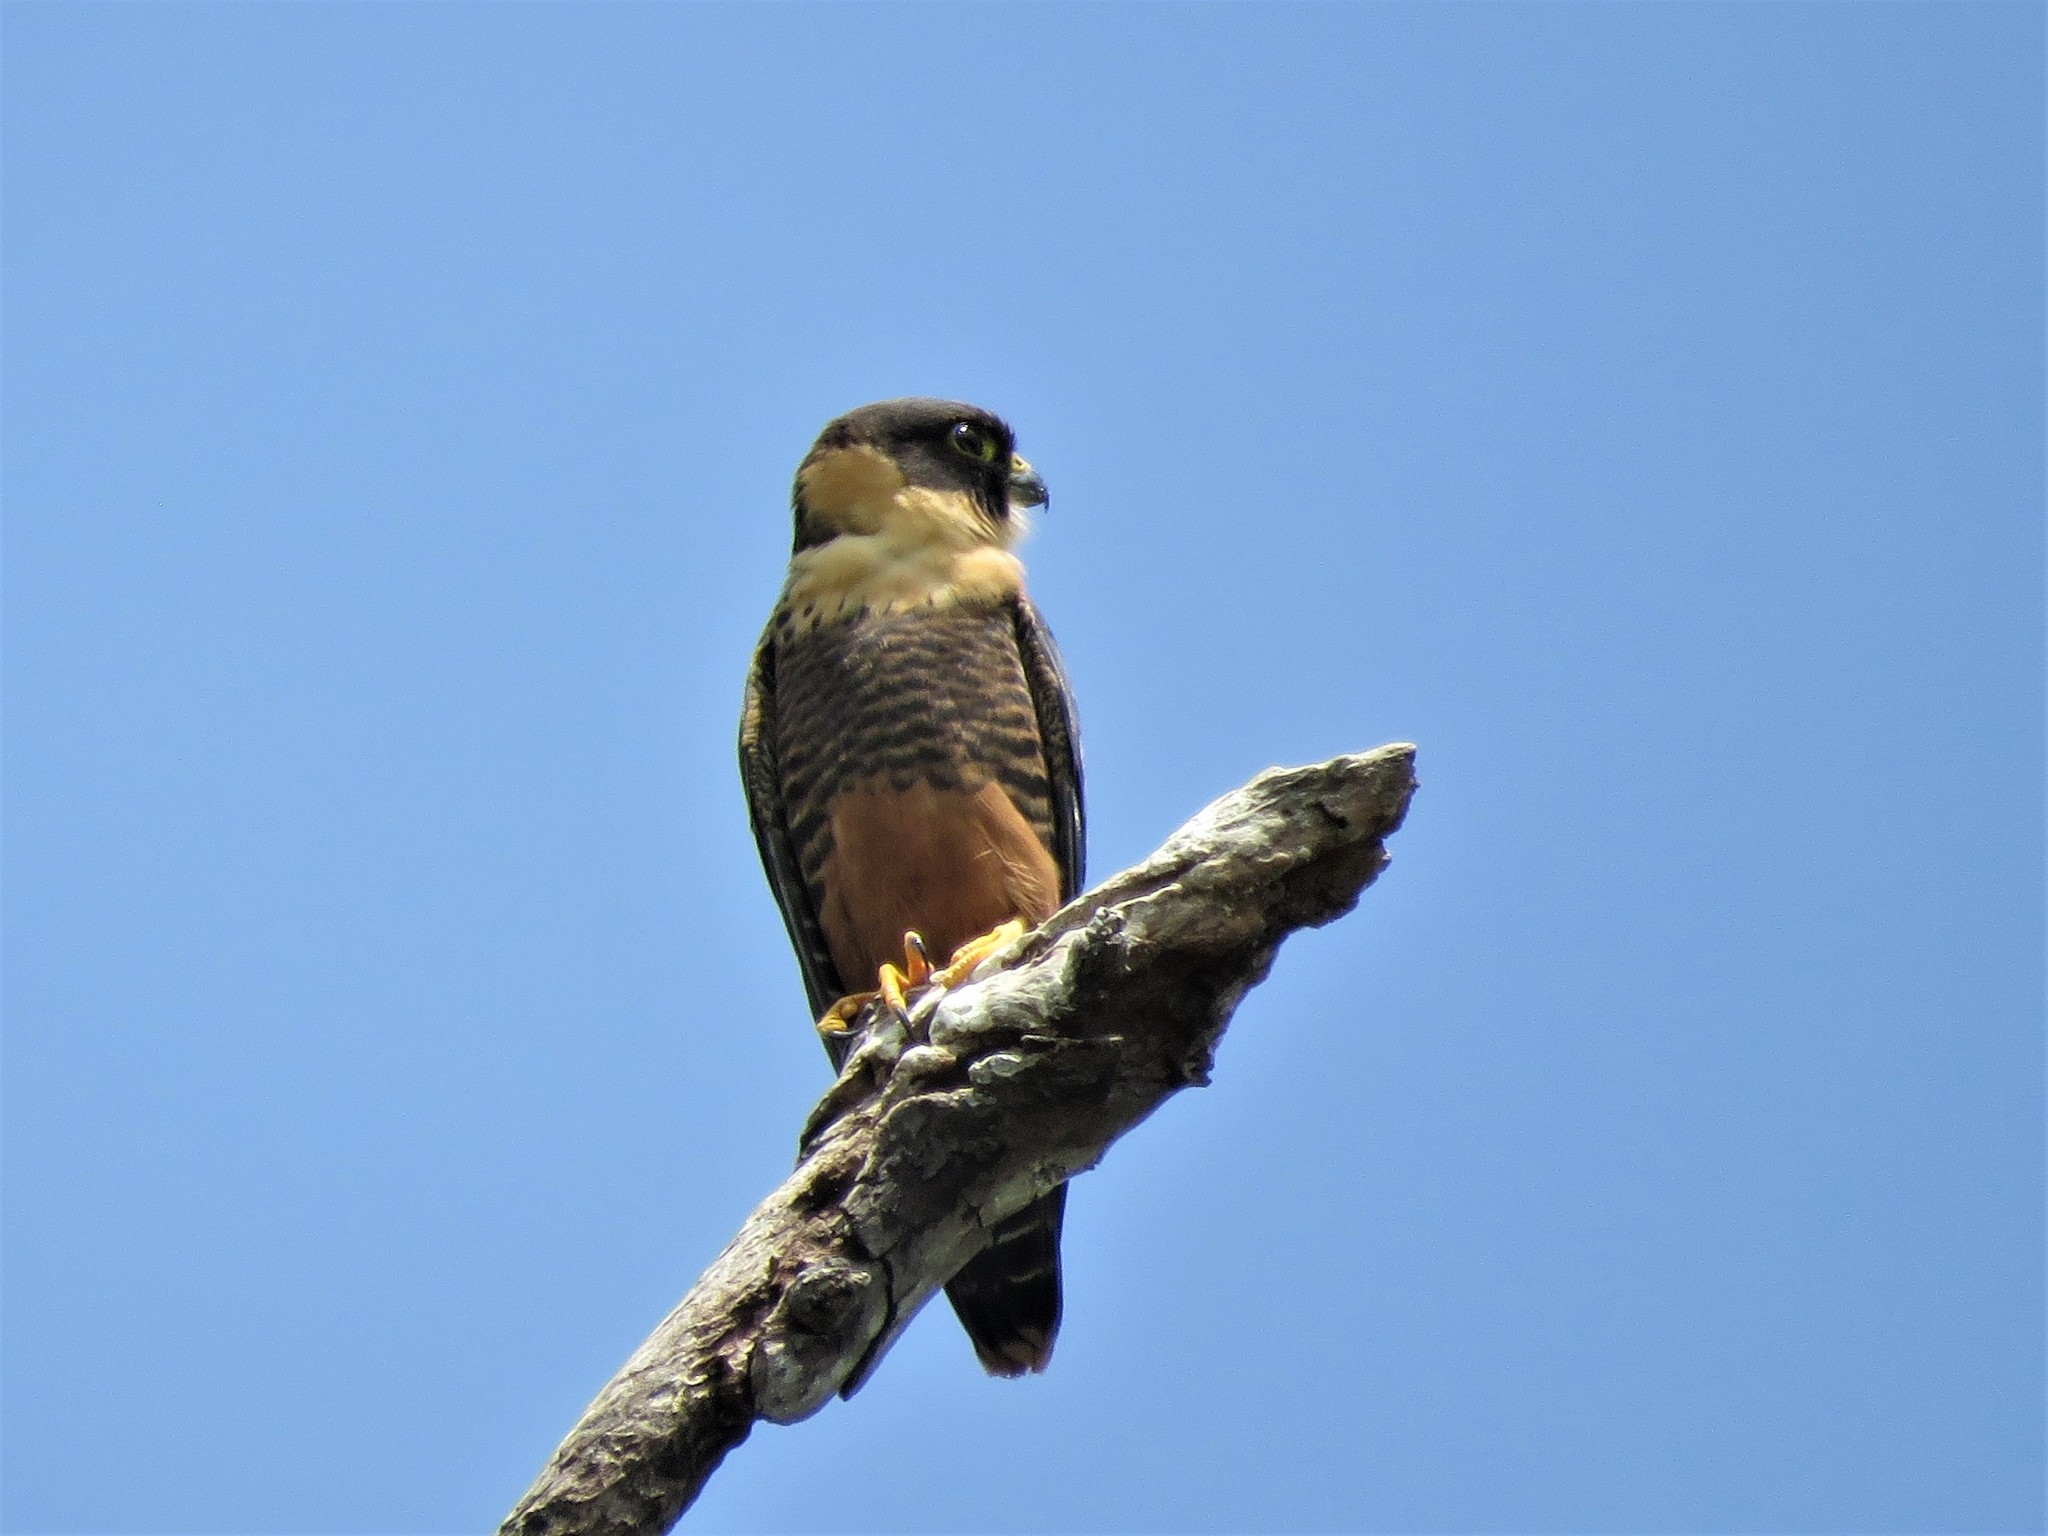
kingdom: Animalia
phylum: Chordata
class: Aves
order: Falconiformes
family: Falconidae
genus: Falco
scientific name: Falco rufigularis
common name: Bat falcon
